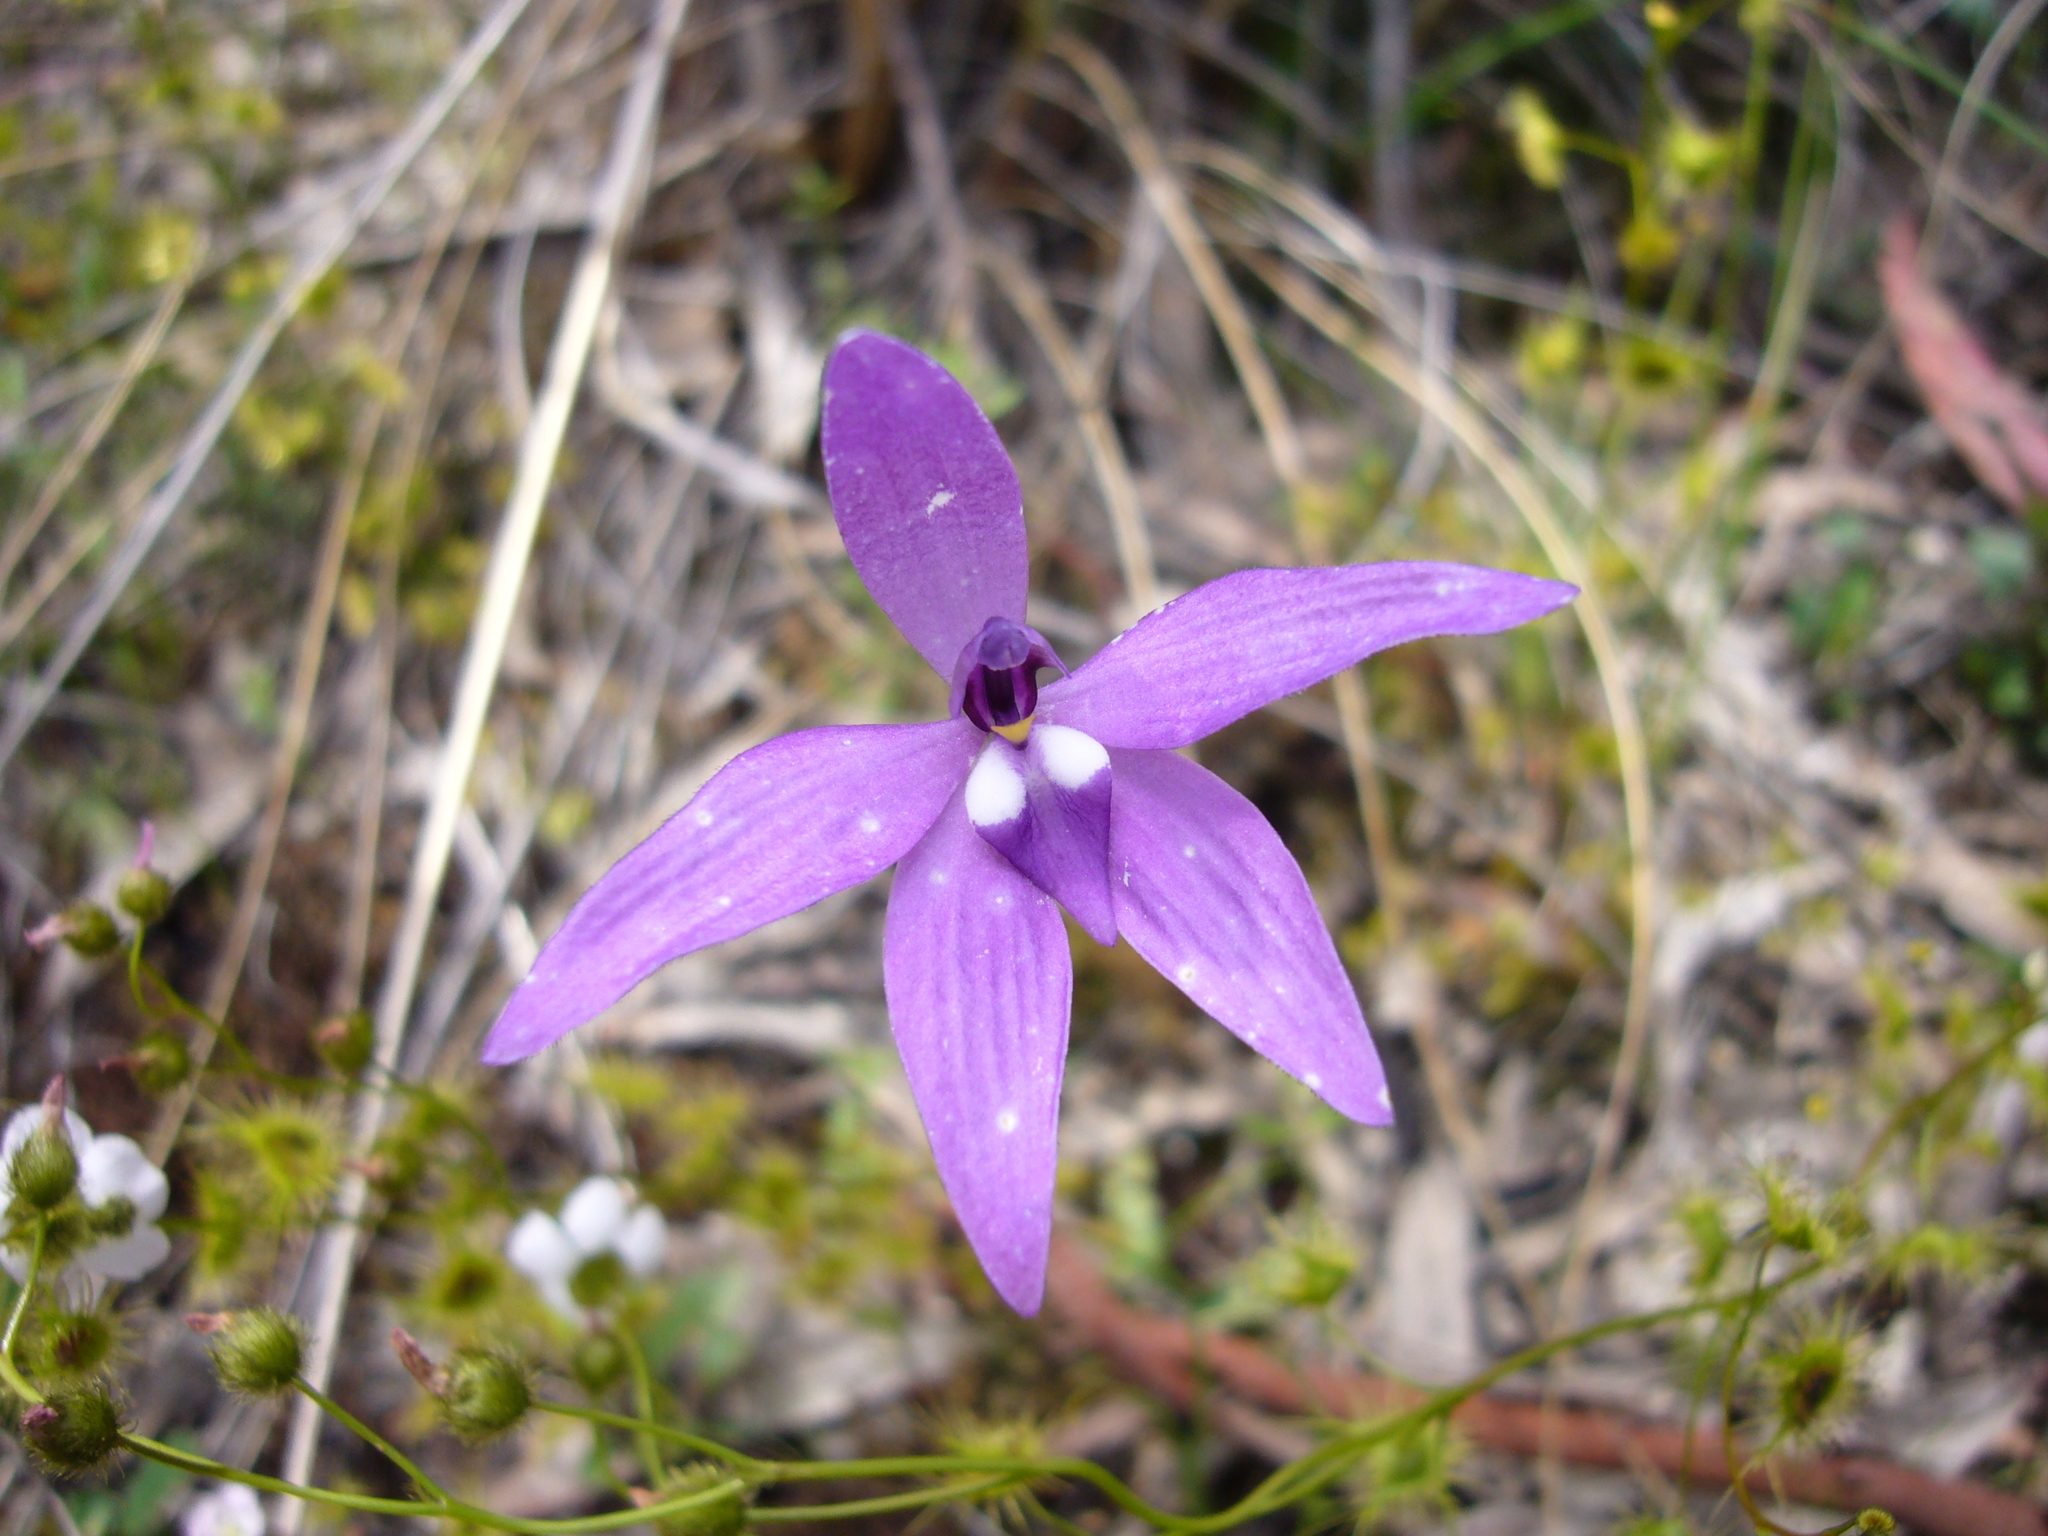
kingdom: Plantae
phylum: Tracheophyta
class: Liliopsida
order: Asparagales
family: Orchidaceae
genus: Caladenia
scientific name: Caladenia major
